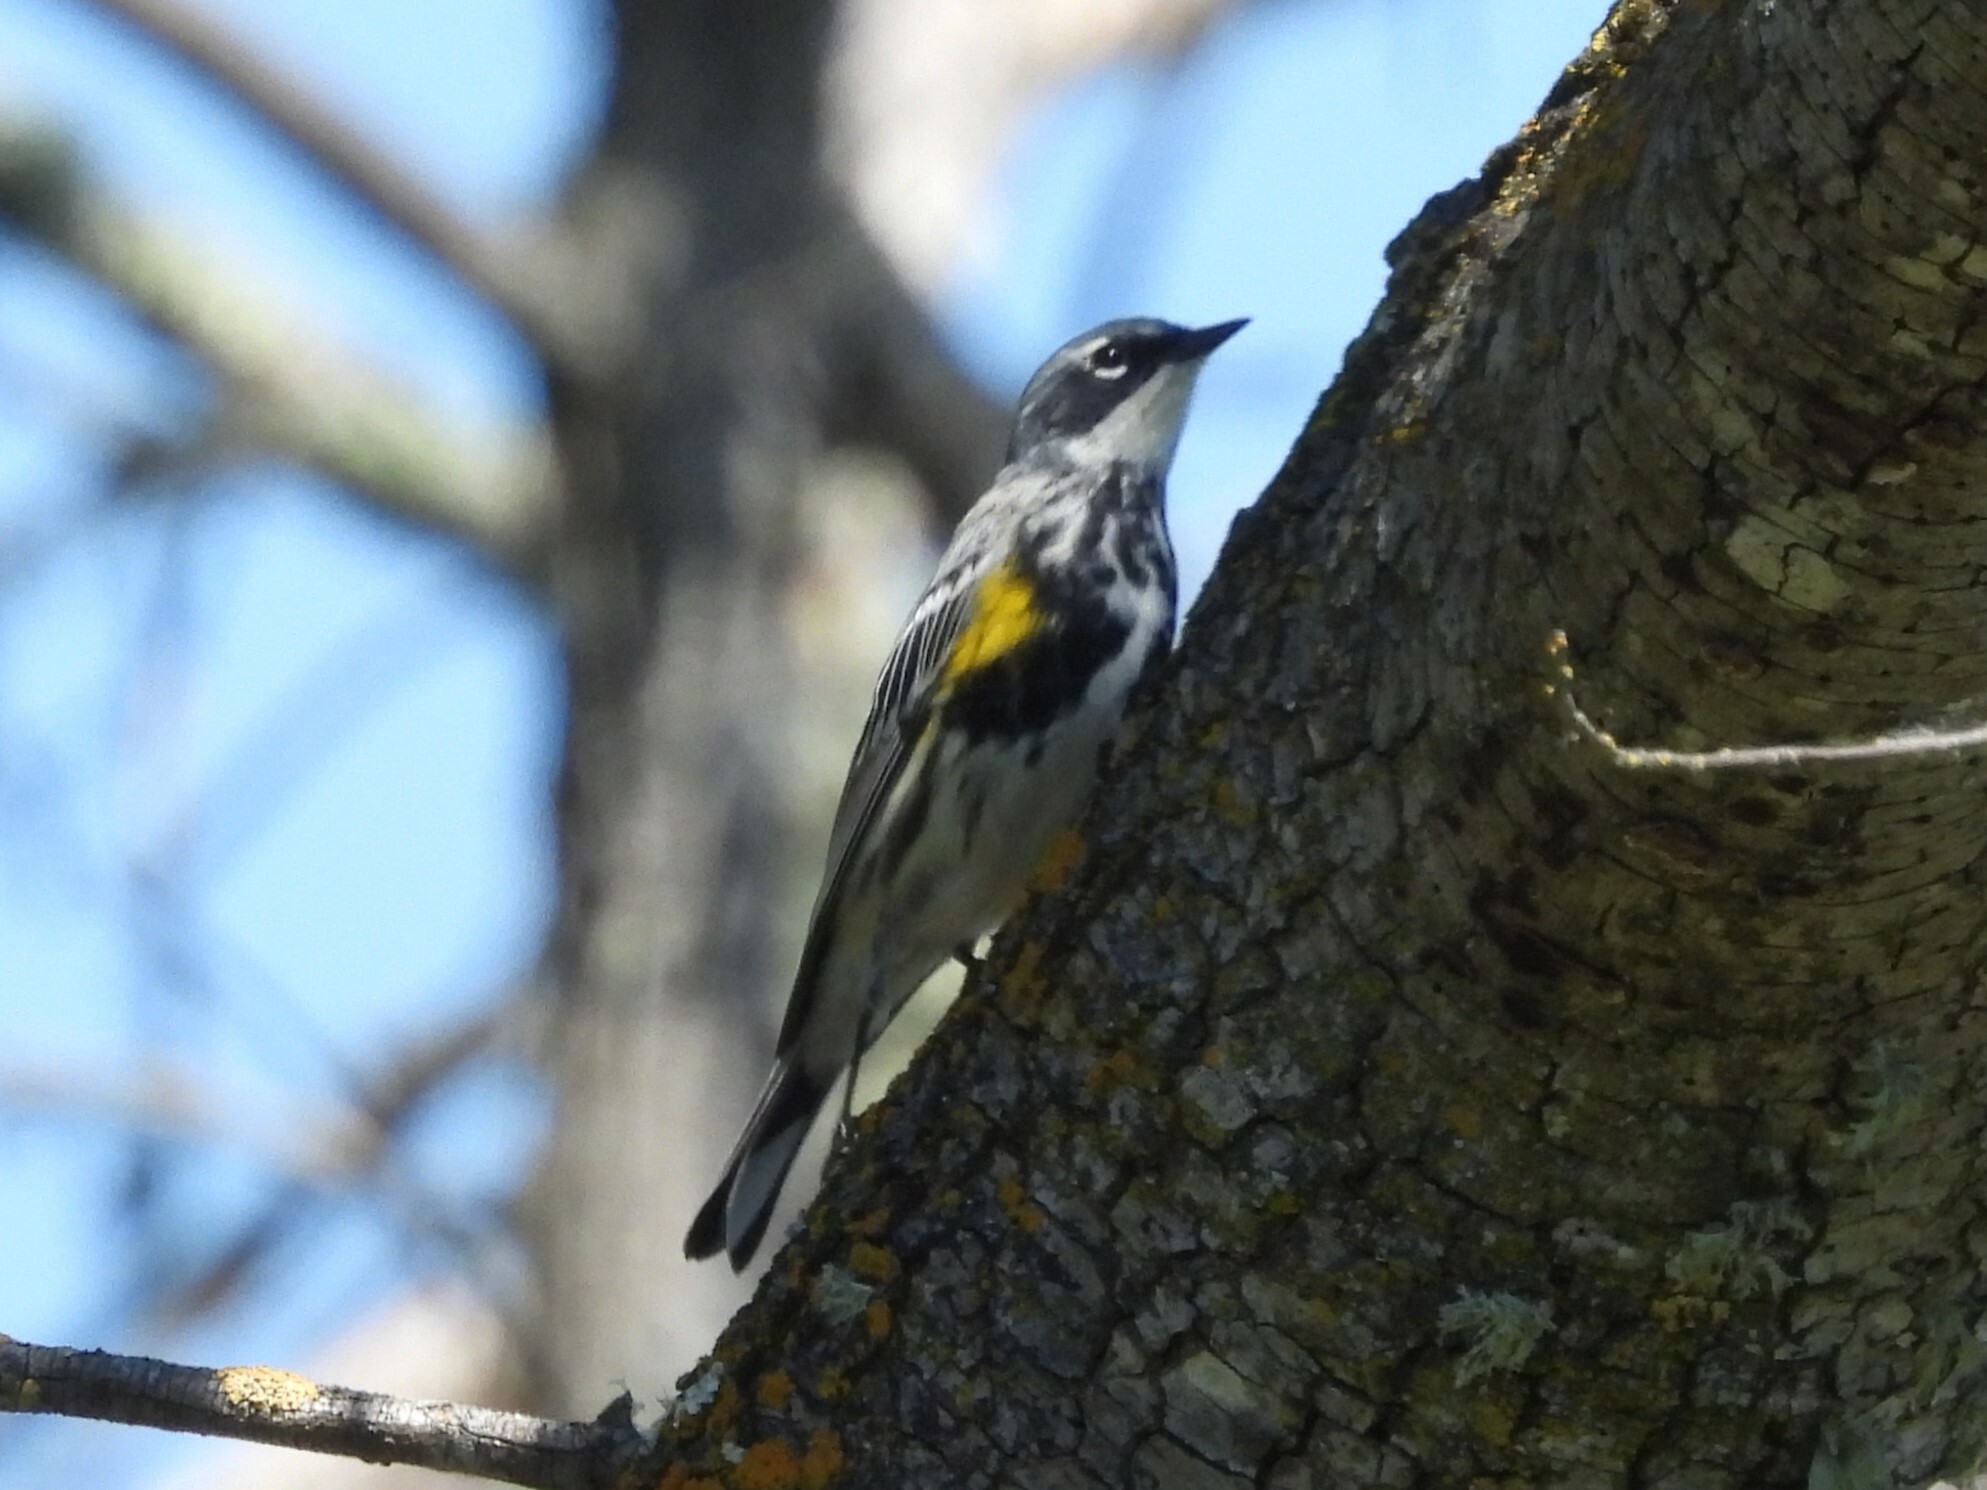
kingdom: Animalia
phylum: Chordata
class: Aves
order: Passeriformes
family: Parulidae
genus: Setophaga
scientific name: Setophaga coronata
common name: Myrtle warbler
